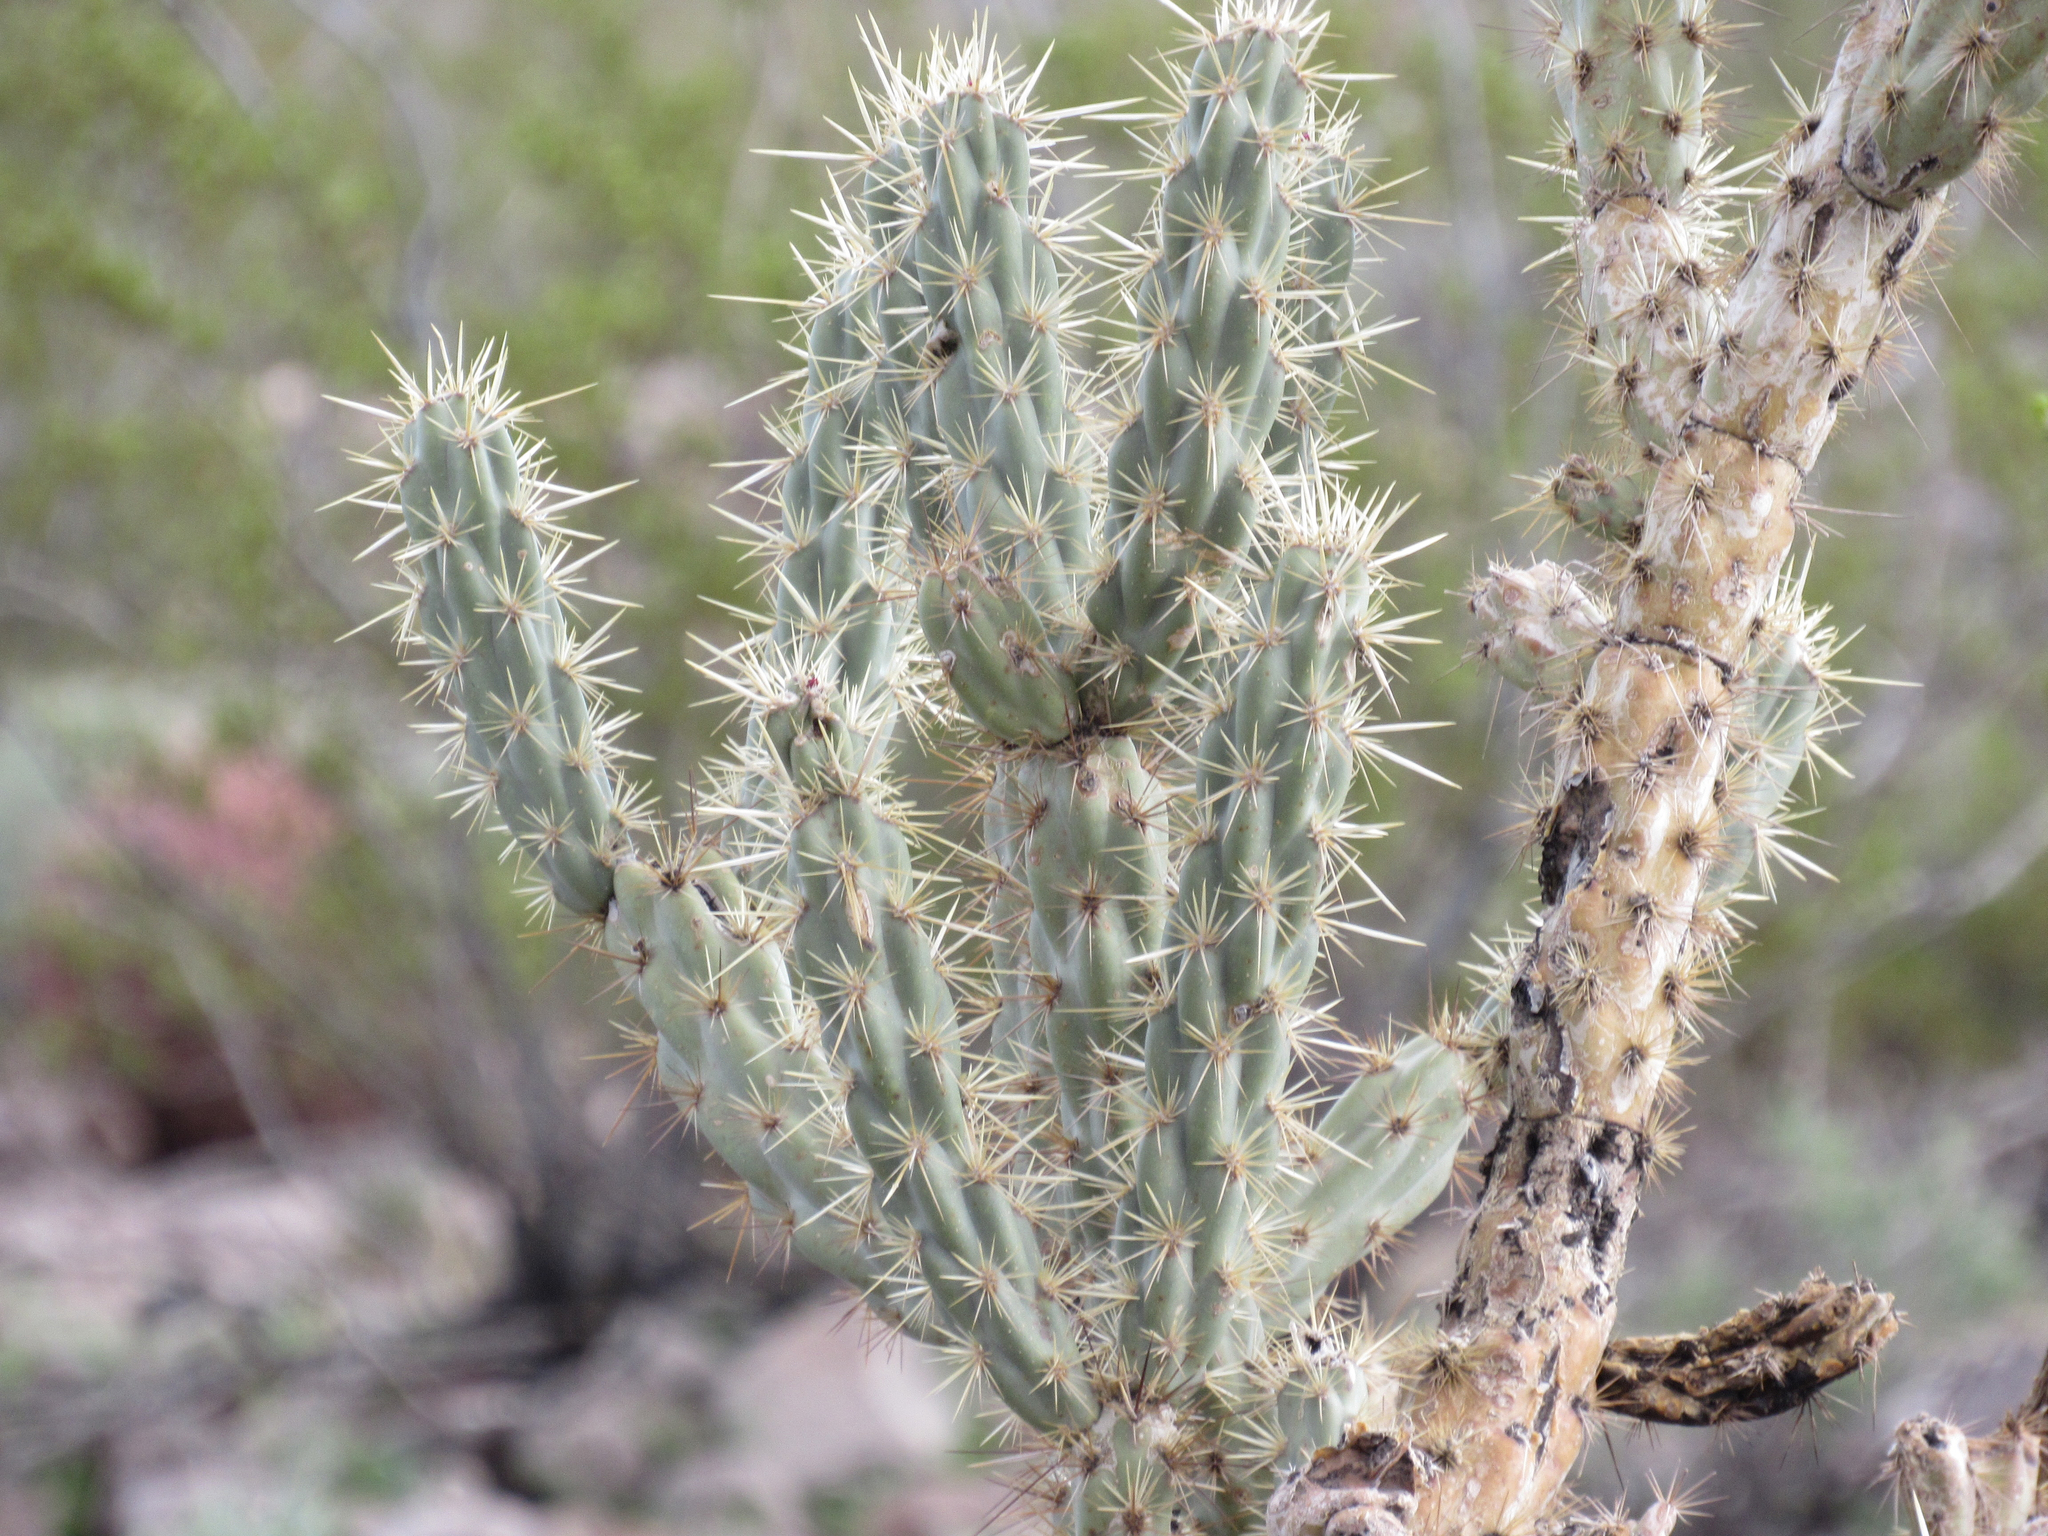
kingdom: Plantae
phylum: Tracheophyta
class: Magnoliopsida
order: Caryophyllales
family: Cactaceae
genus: Cylindropuntia
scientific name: Cylindropuntia acanthocarpa
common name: Buckhorn cholla
